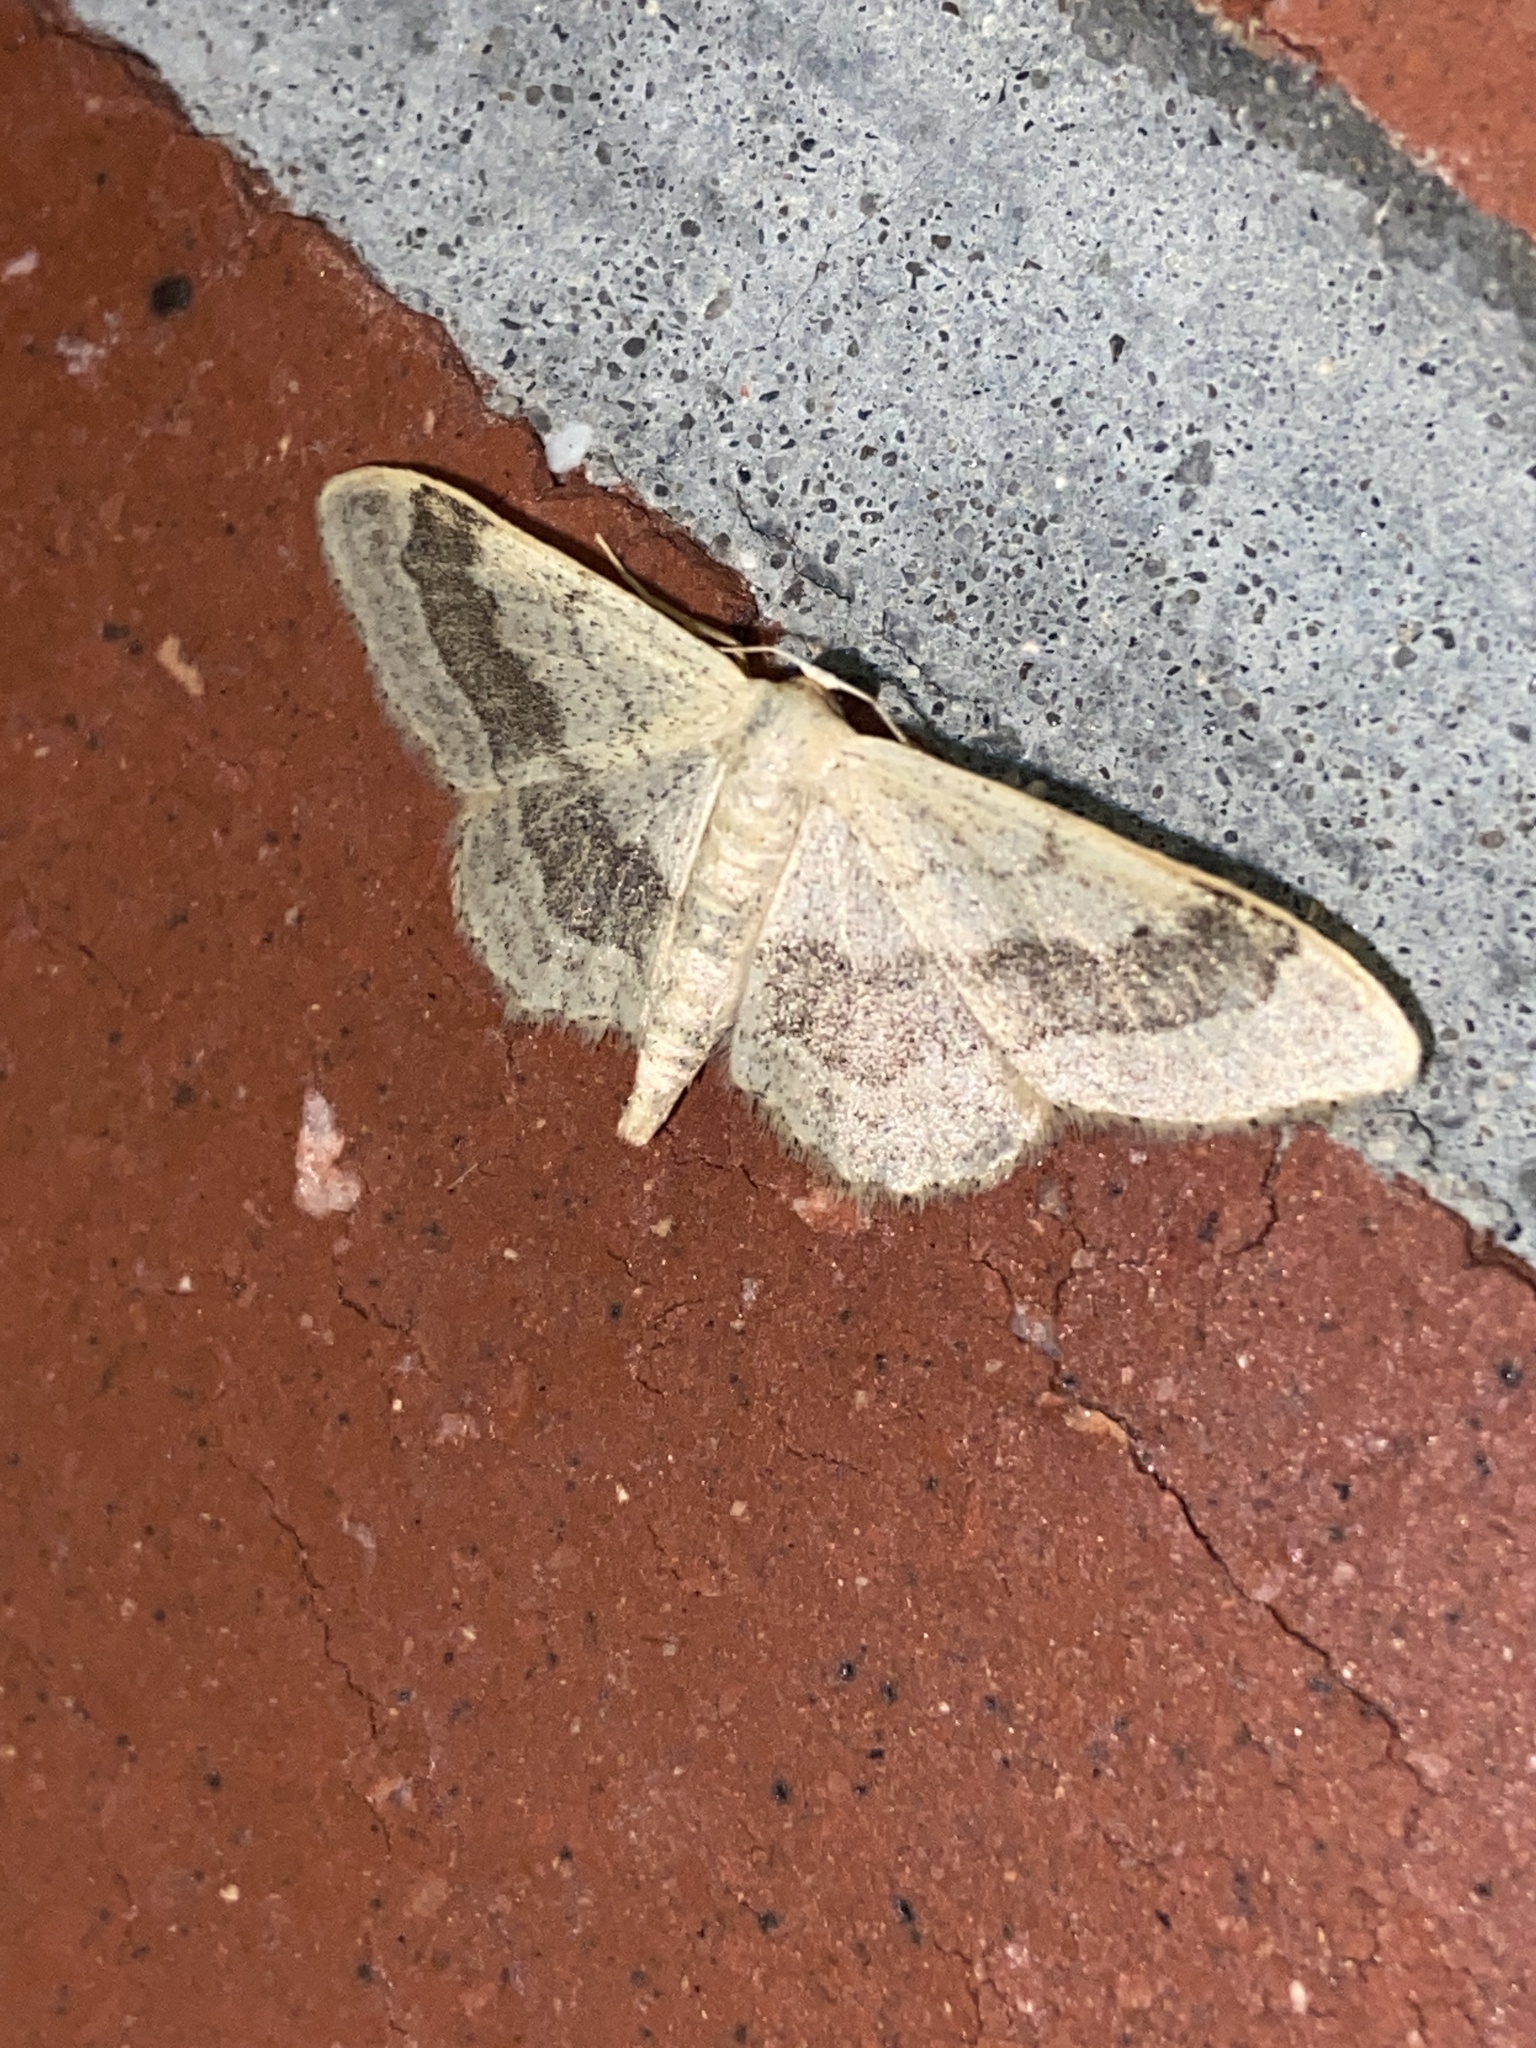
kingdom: Animalia
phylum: Arthropoda
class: Insecta
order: Lepidoptera
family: Geometridae
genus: Idaea
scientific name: Idaea aversata
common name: Riband wave
